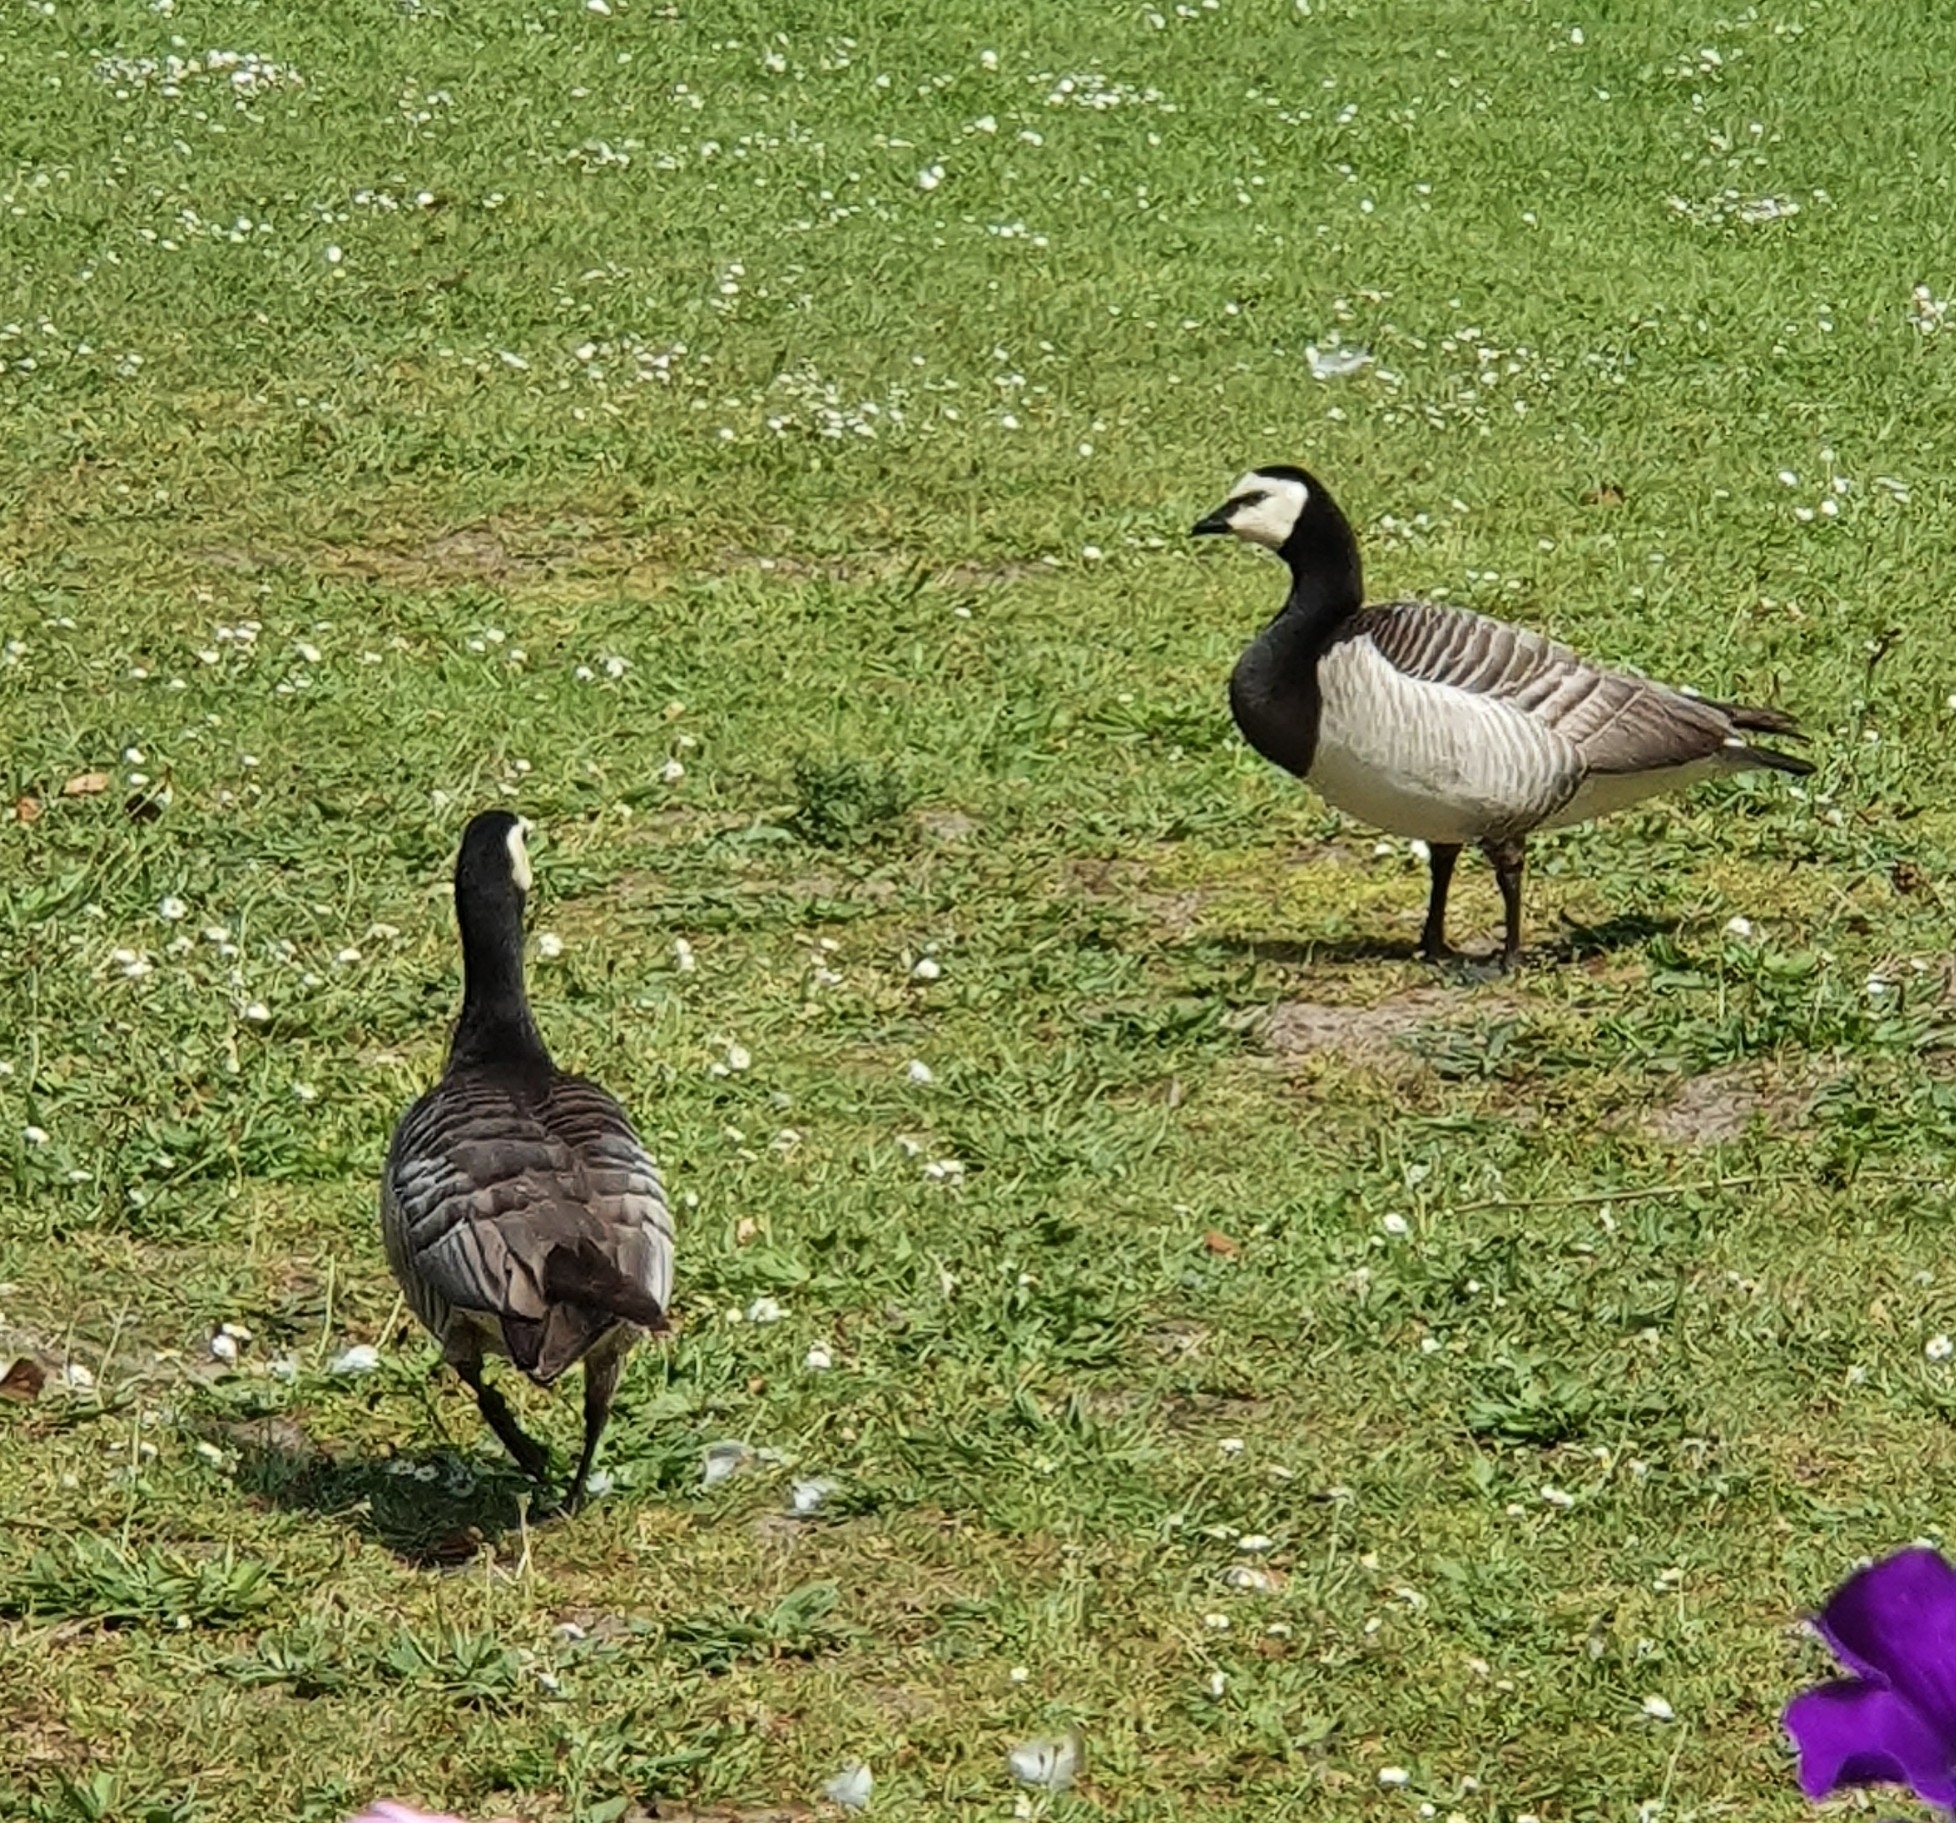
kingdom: Animalia
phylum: Chordata
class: Aves
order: Anseriformes
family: Anatidae
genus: Branta
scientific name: Branta leucopsis
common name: Barnacle goose
